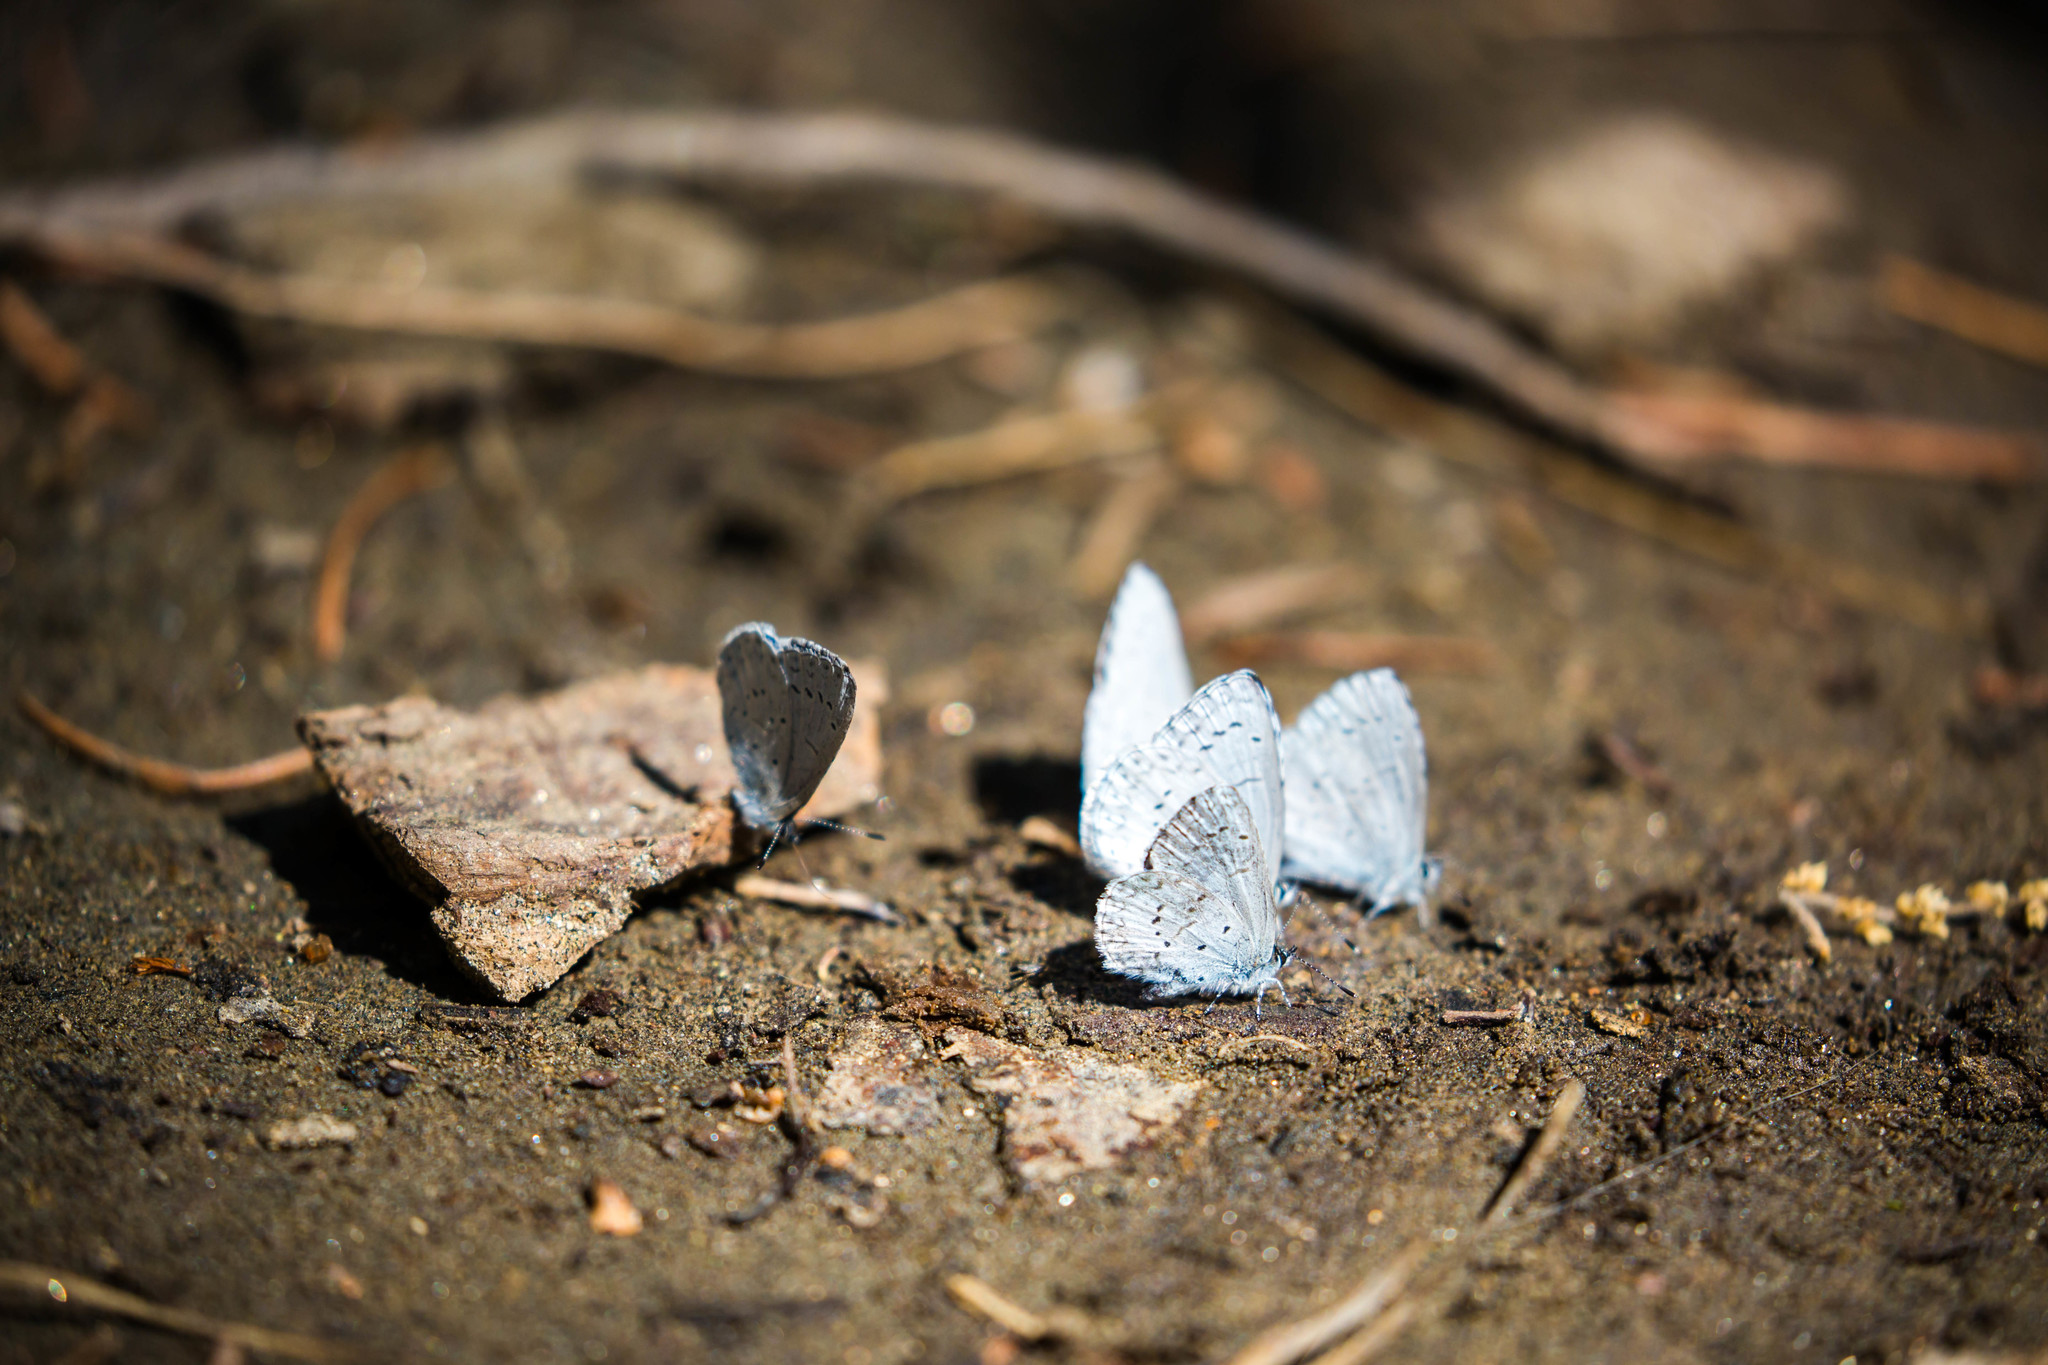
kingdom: Animalia
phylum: Arthropoda
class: Insecta
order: Lepidoptera
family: Lycaenidae
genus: Celastrina
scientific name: Celastrina ladon
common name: Spring azure
